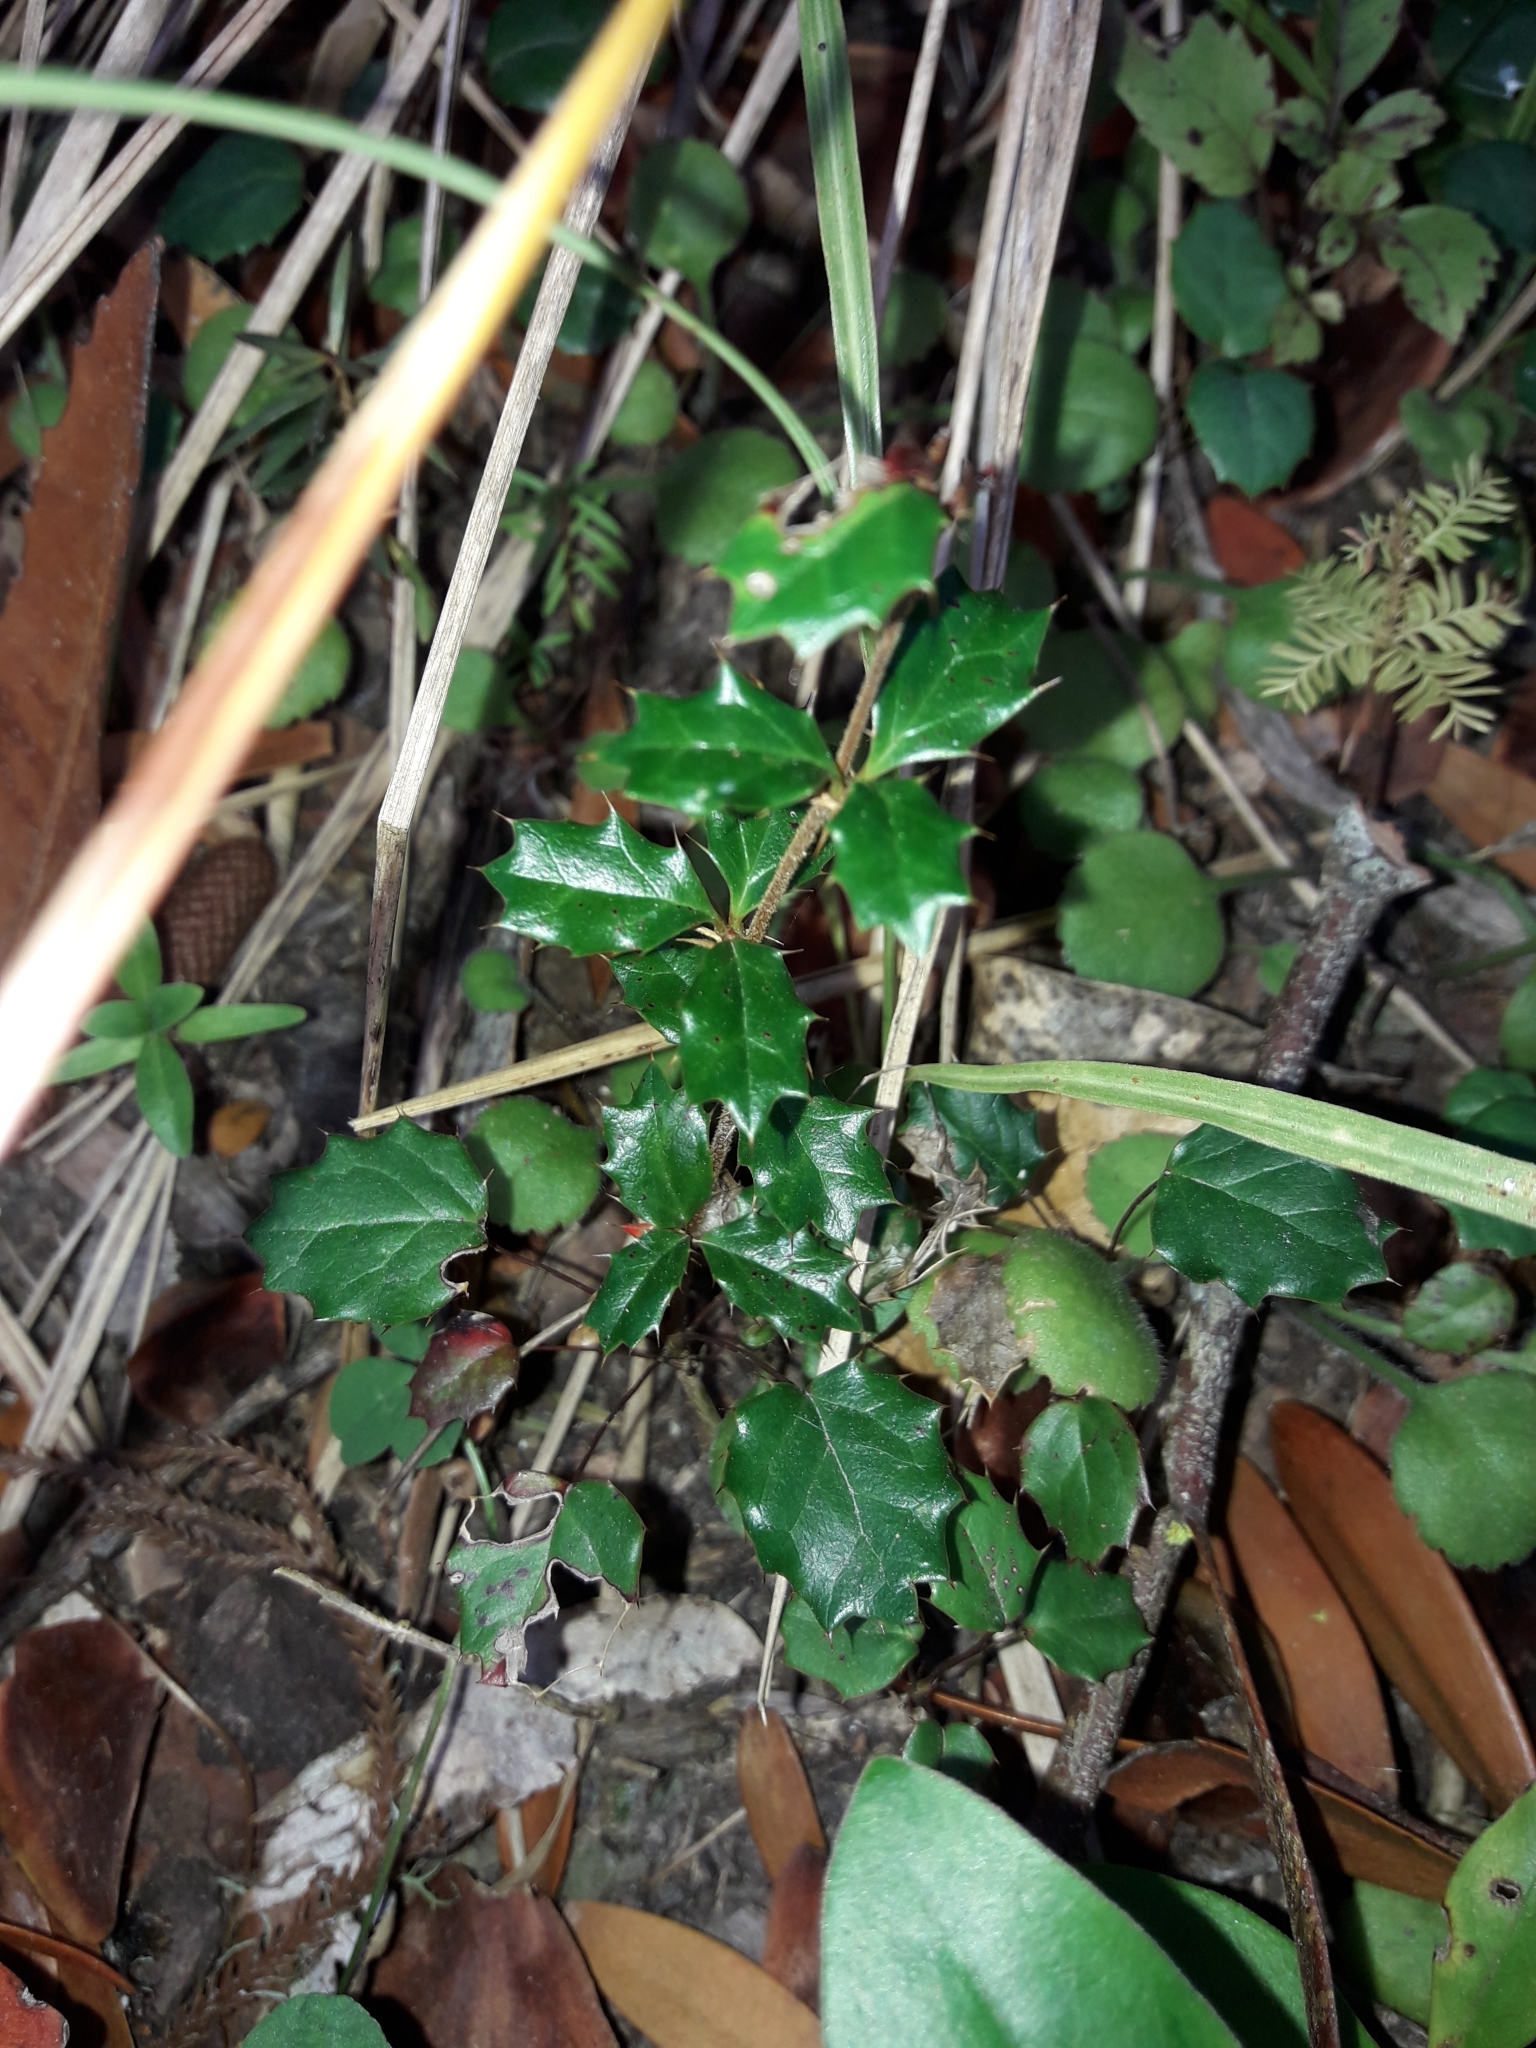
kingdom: Plantae
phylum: Tracheophyta
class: Magnoliopsida
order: Ranunculales
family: Berberidaceae
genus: Berberis
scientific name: Berberis darwinii
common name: Darwin's barberry
